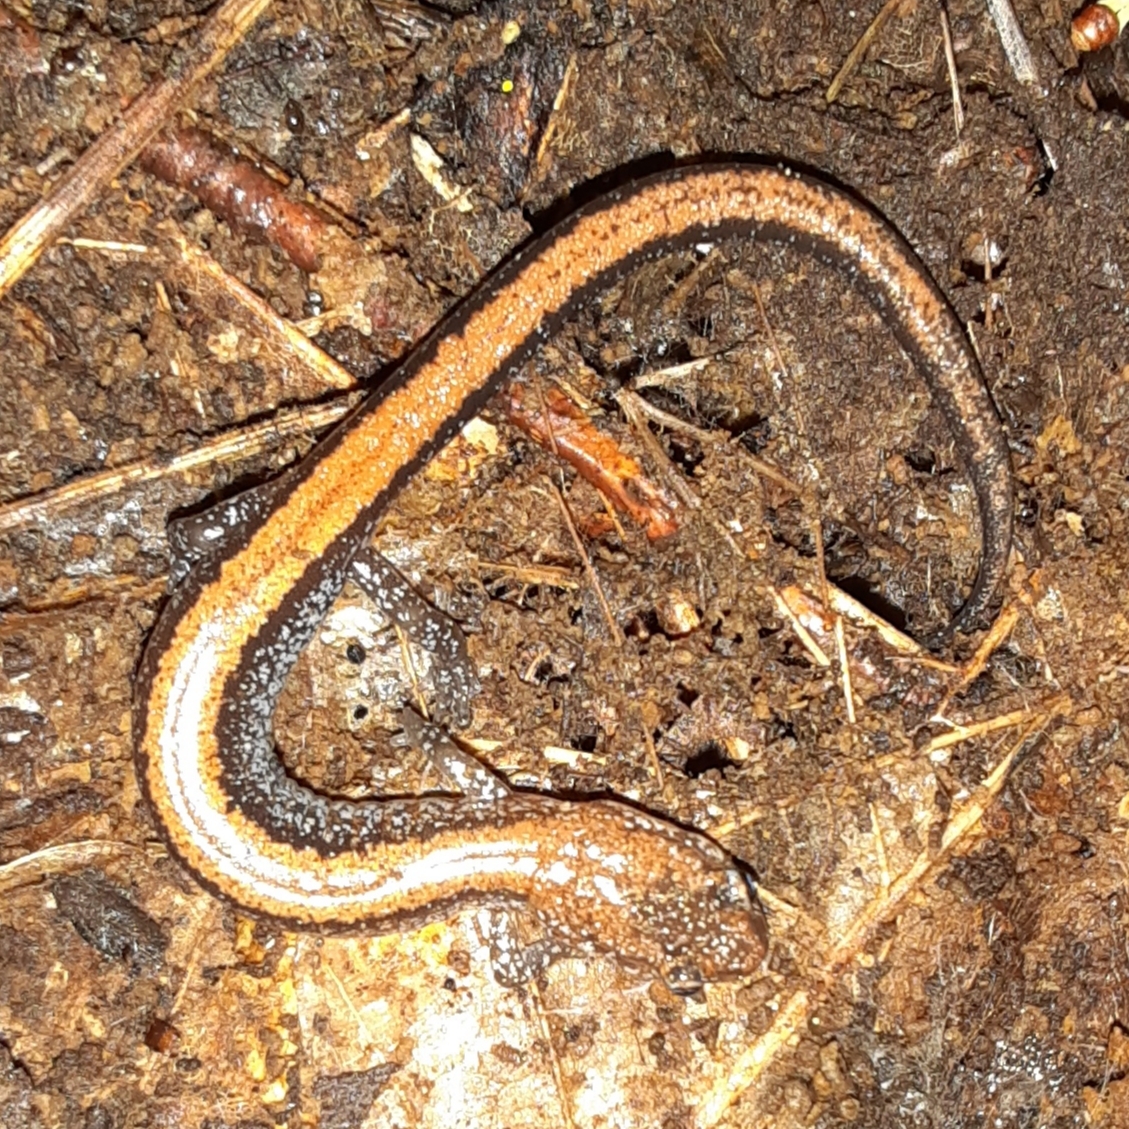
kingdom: Animalia
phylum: Chordata
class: Amphibia
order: Caudata
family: Plethodontidae
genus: Plethodon
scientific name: Plethodon cinereus
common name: Redback salamander
